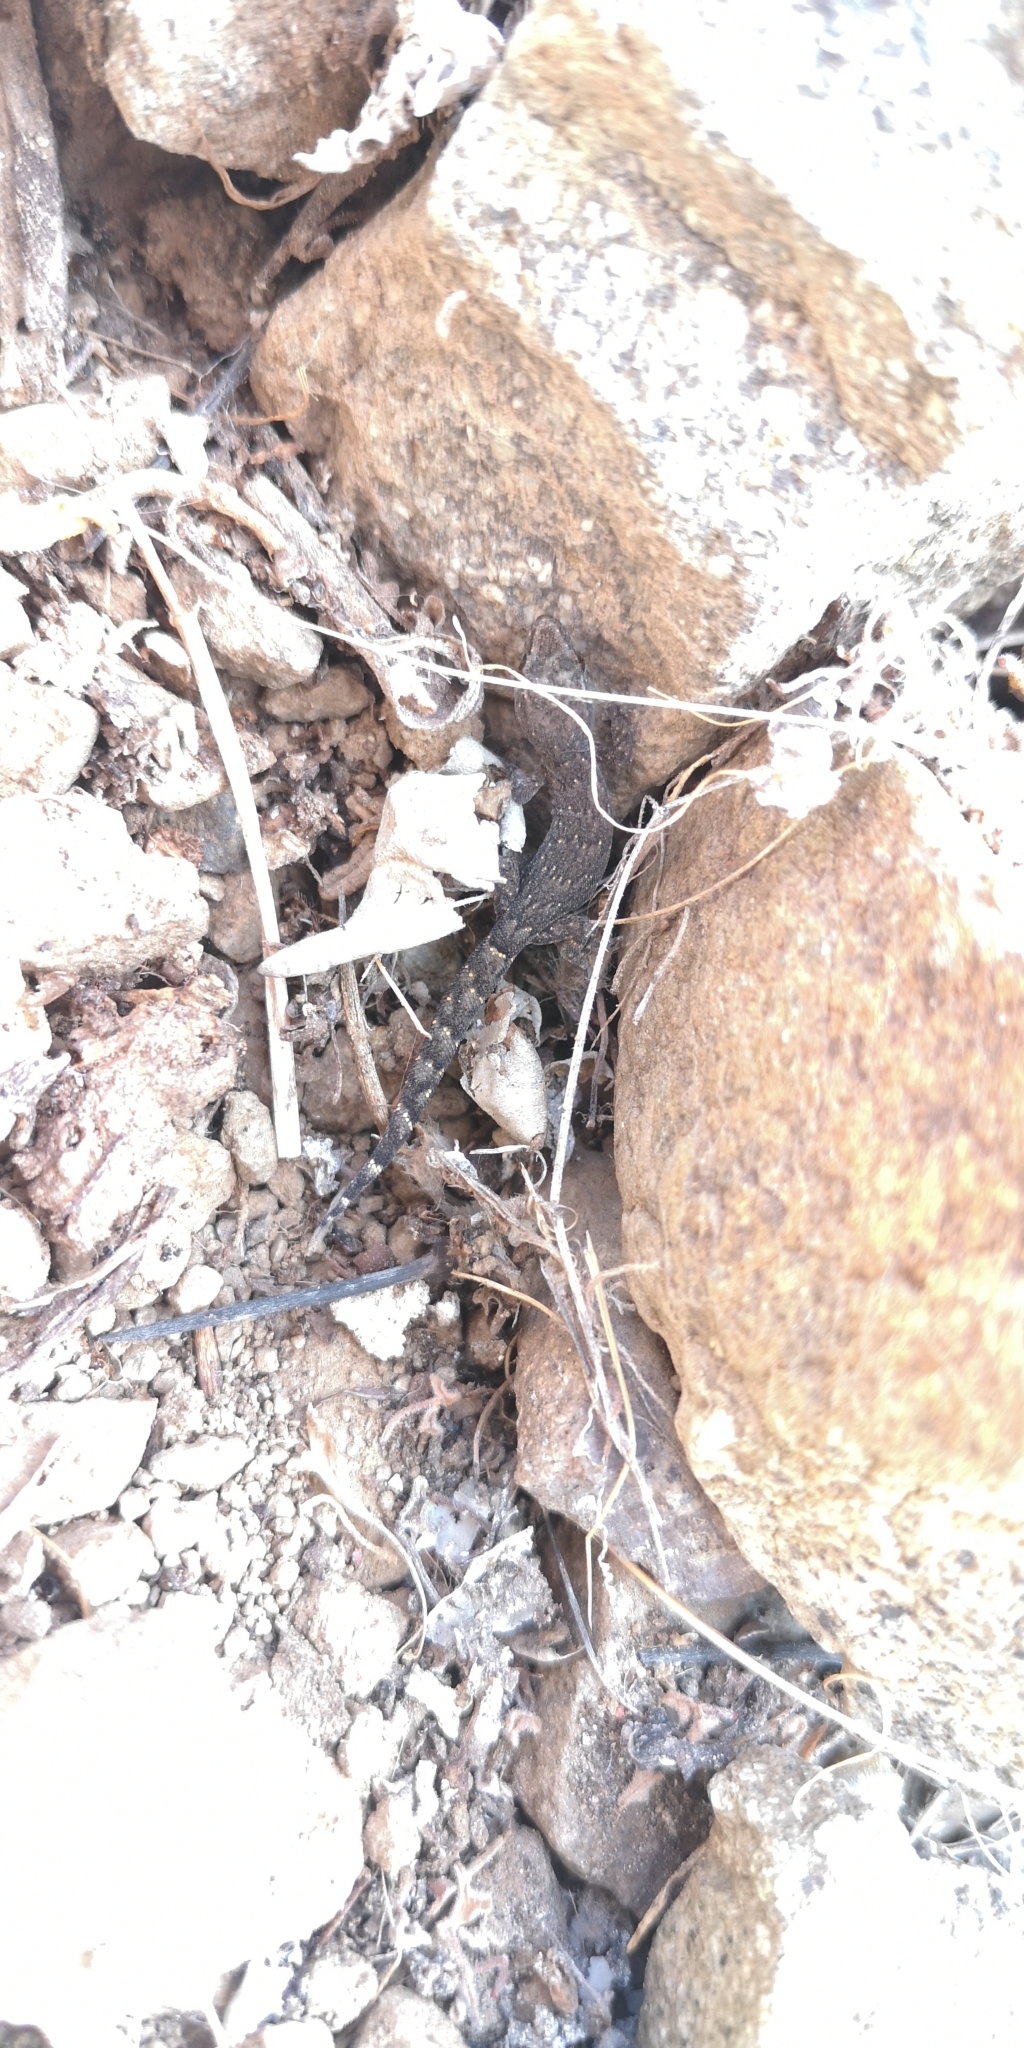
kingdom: Animalia
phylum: Chordata
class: Squamata
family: Phyllodactylidae
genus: Garthia
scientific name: Garthia gaudichaudii
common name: Chilean marked gecko
